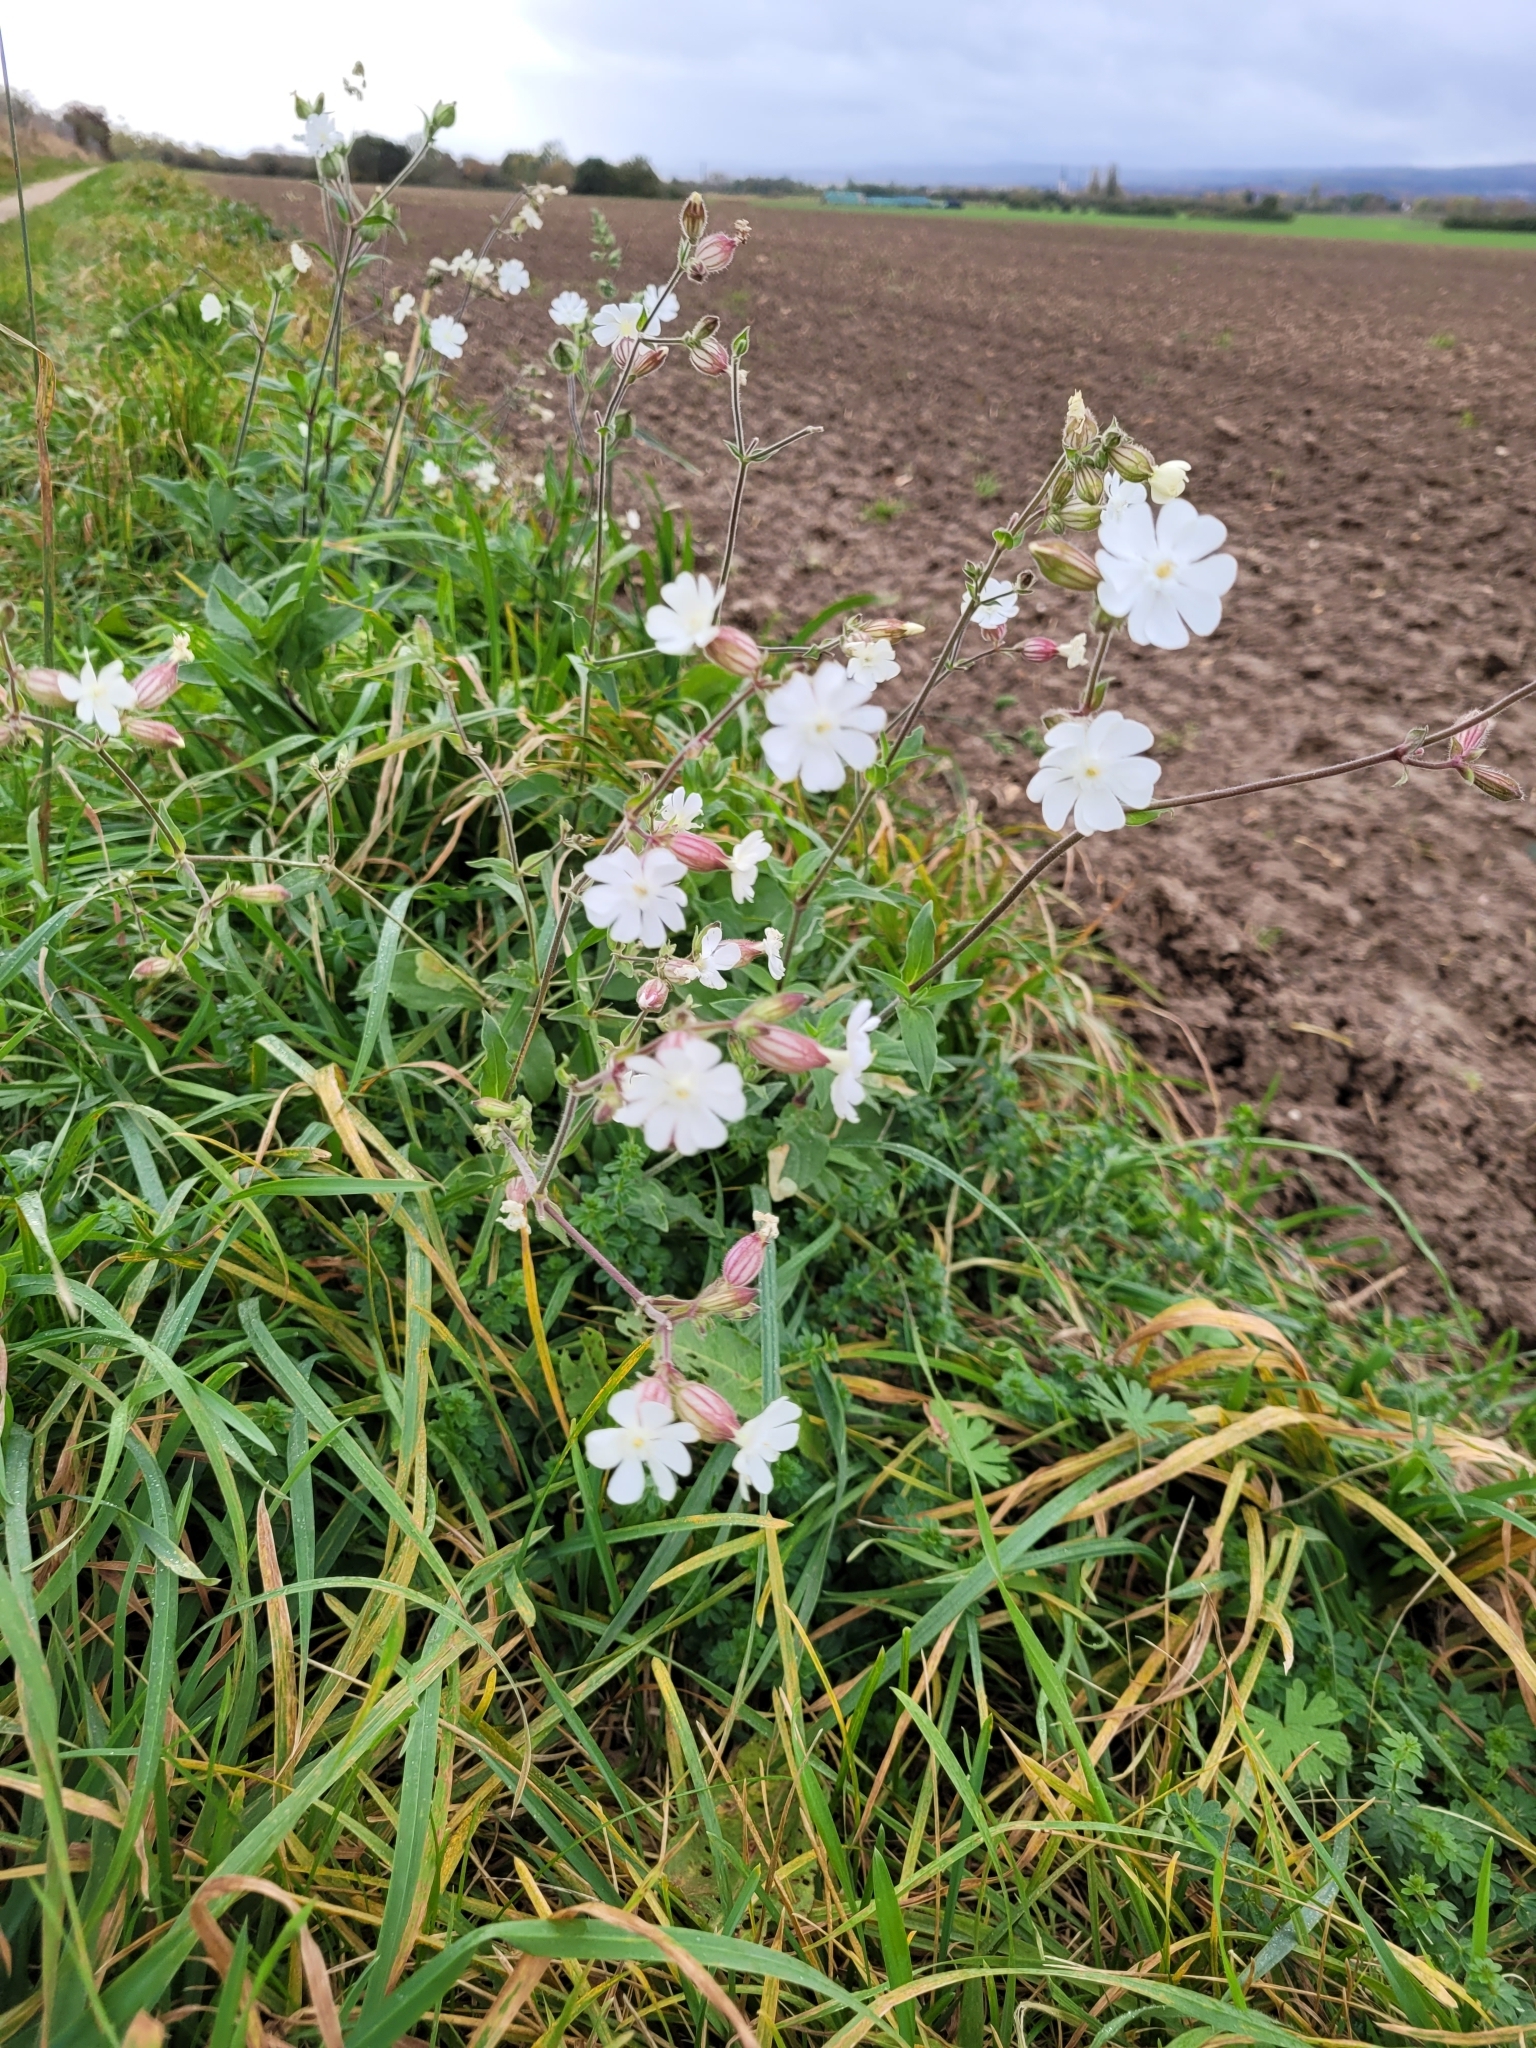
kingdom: Plantae
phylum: Tracheophyta
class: Magnoliopsida
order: Caryophyllales
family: Caryophyllaceae
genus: Silene
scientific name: Silene latifolia
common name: White campion
